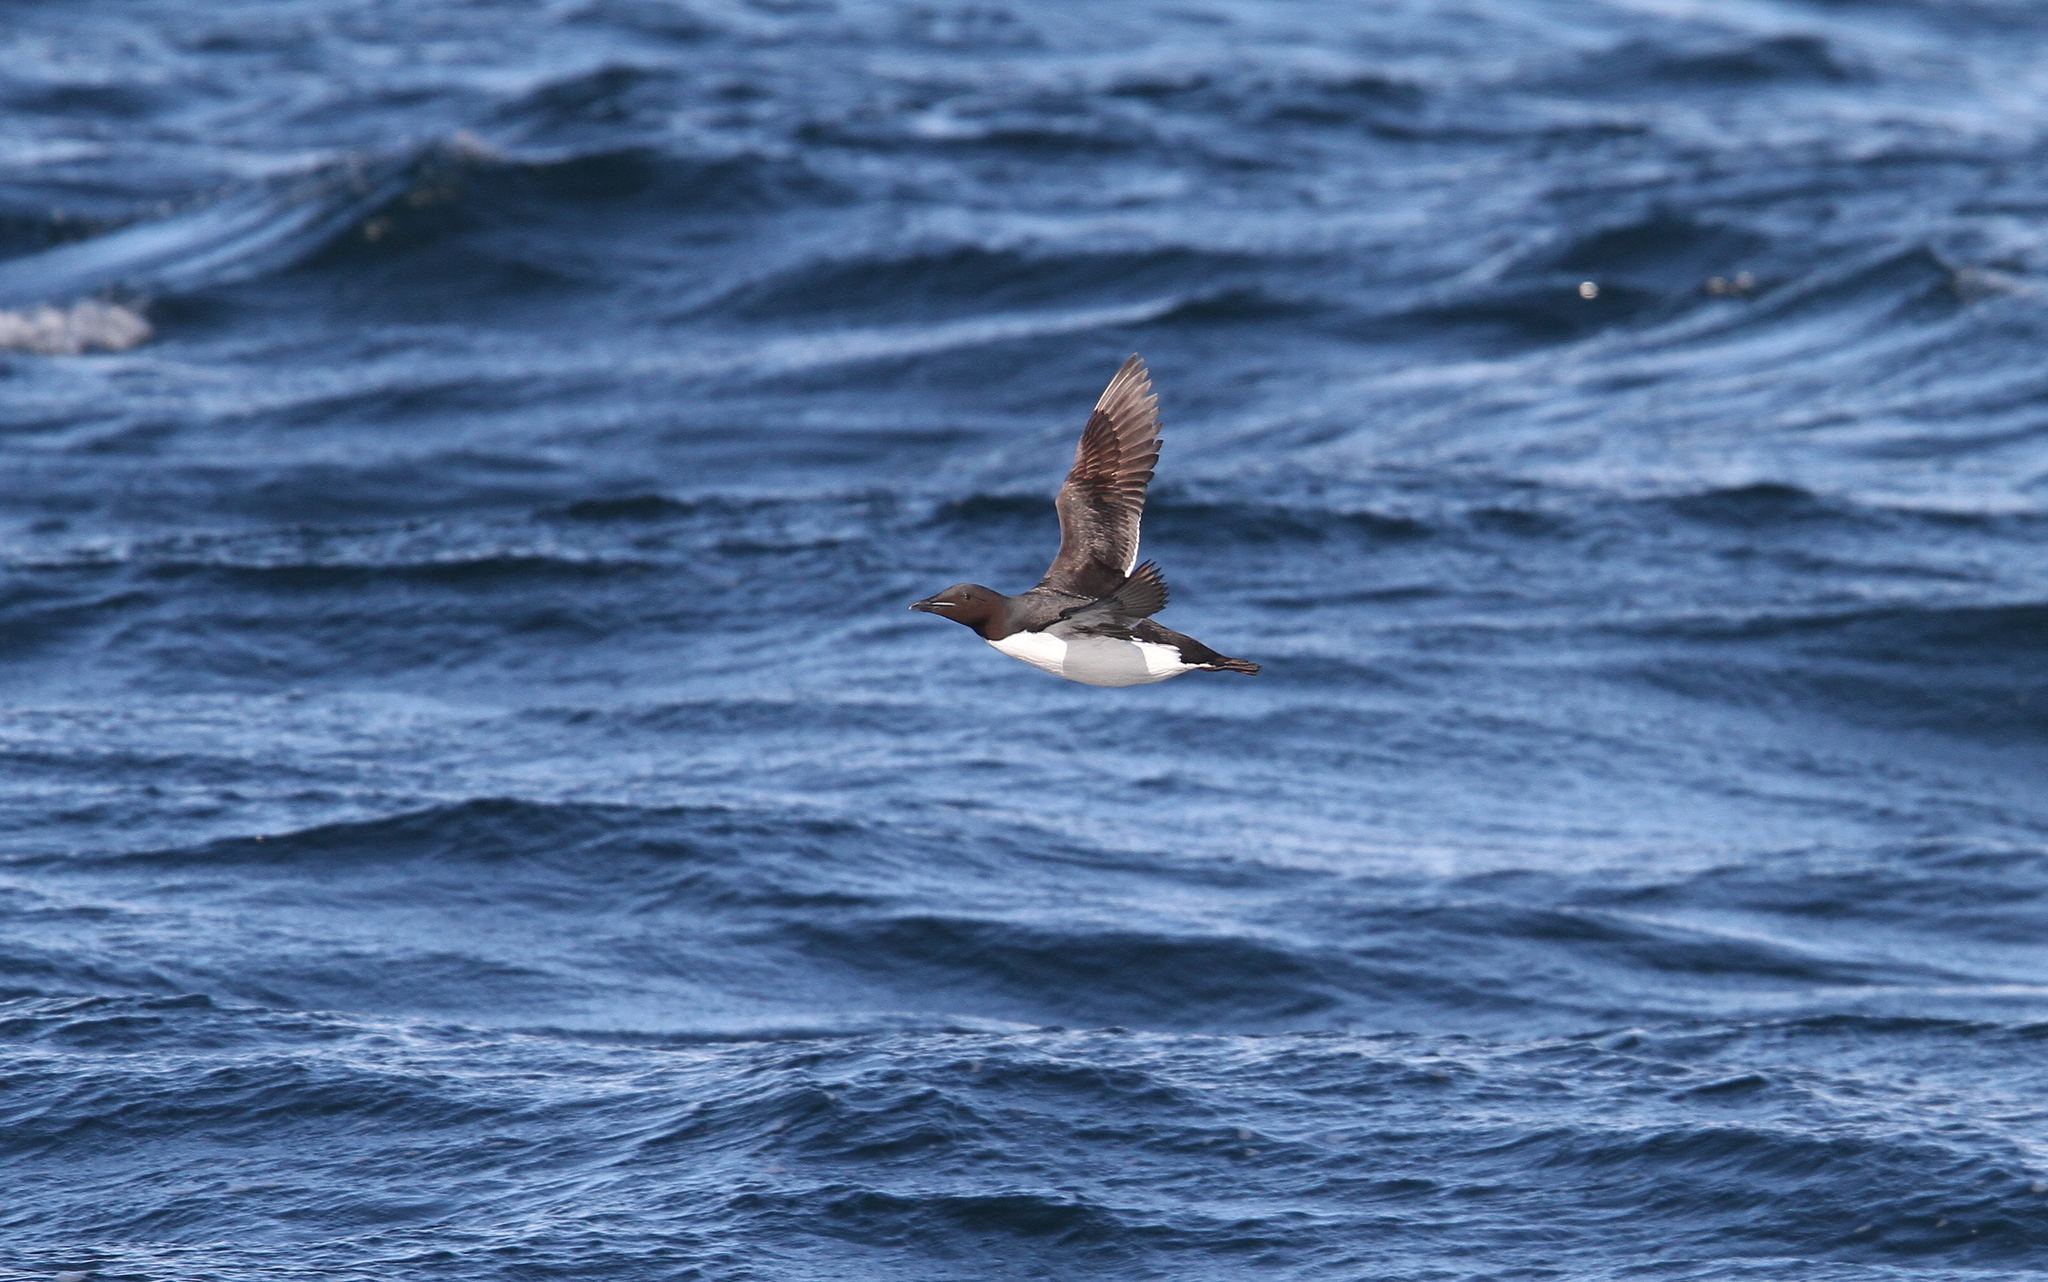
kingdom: Animalia
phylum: Chordata
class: Aves
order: Charadriiformes
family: Alcidae
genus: Uria
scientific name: Uria lomvia
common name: Thick-billed murre
